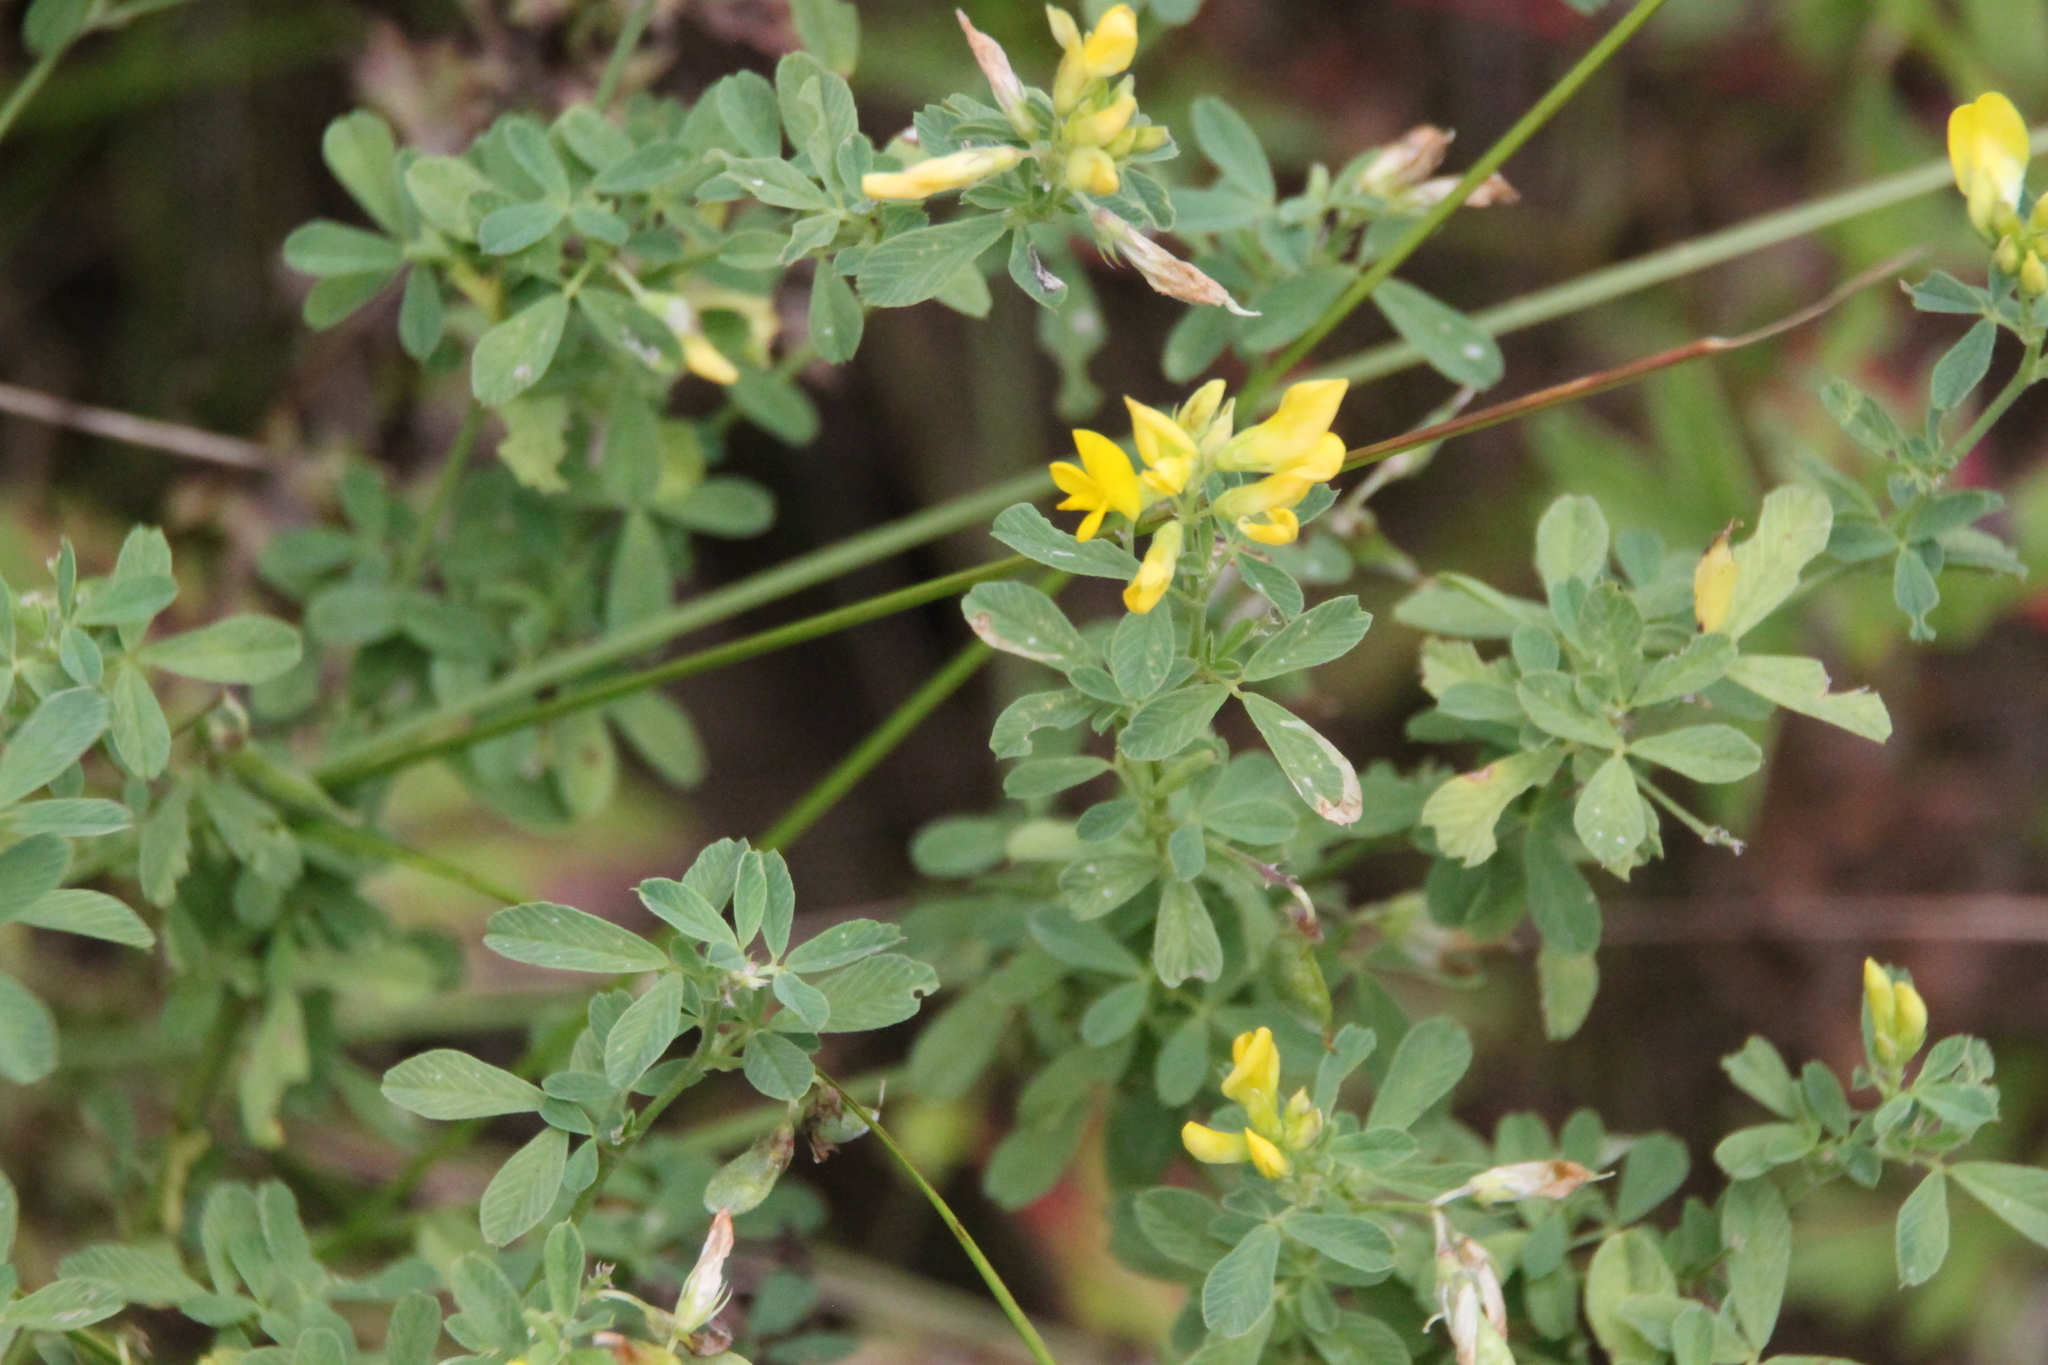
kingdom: Plantae
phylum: Tracheophyta
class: Magnoliopsida
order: Fabales
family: Fabaceae
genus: Medicago
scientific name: Medicago falcata
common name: Sickle medick
